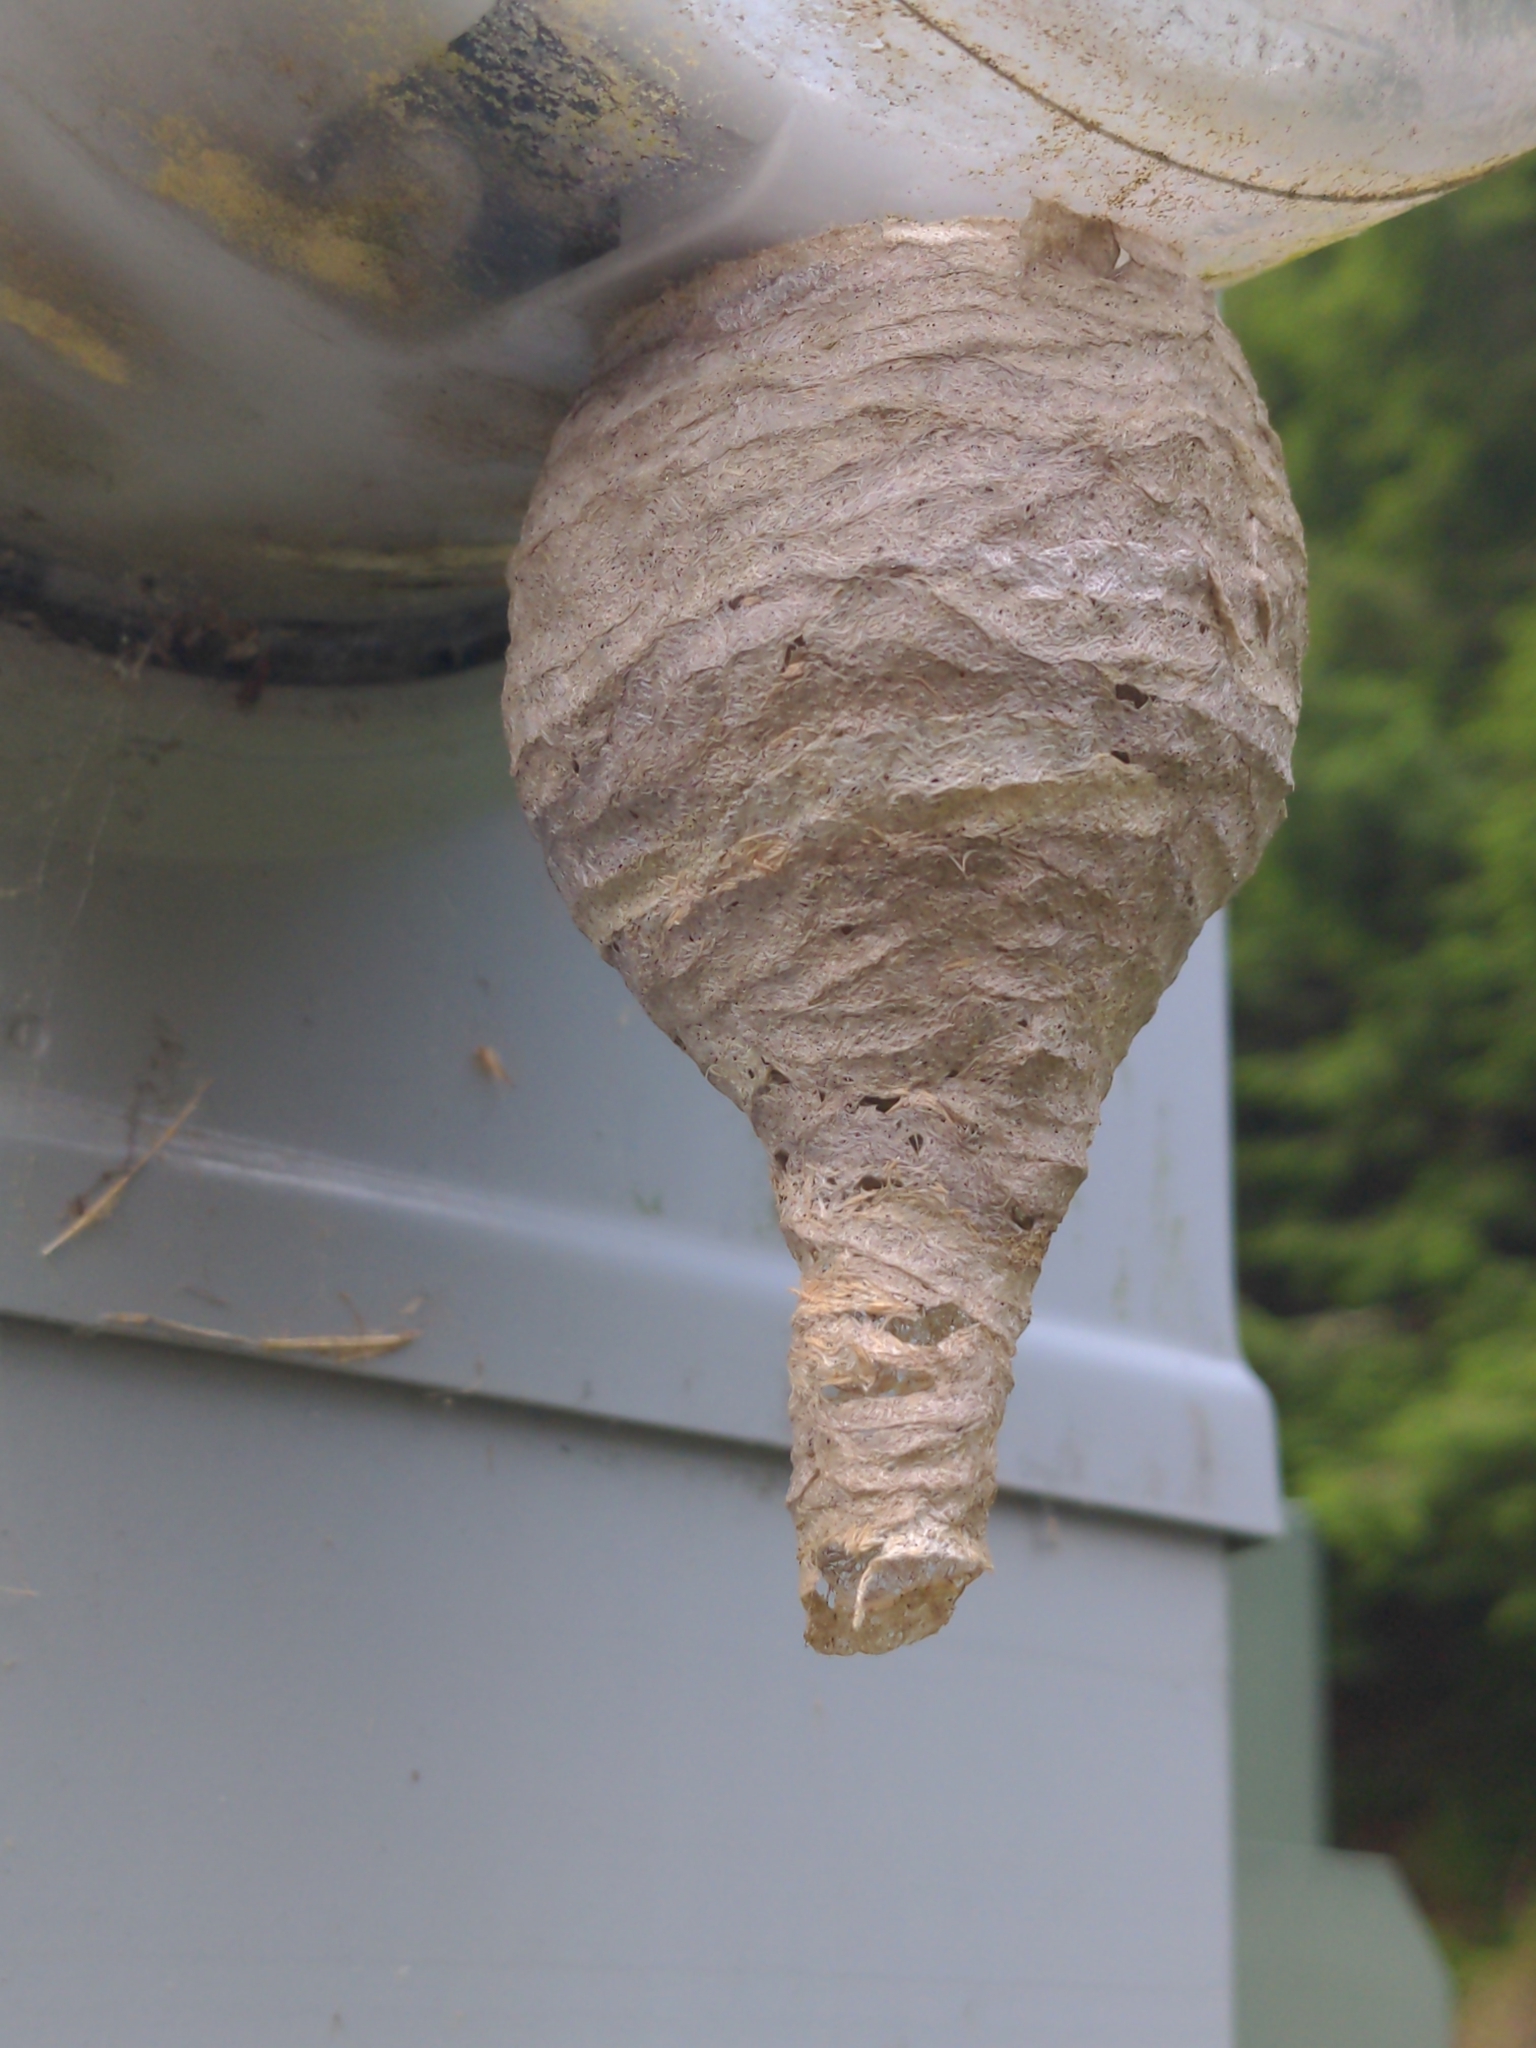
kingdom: Animalia
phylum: Arthropoda
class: Insecta
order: Hymenoptera
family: Vespidae
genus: Dolichovespula
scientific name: Dolichovespula maculata
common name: Bald-faced hornet
